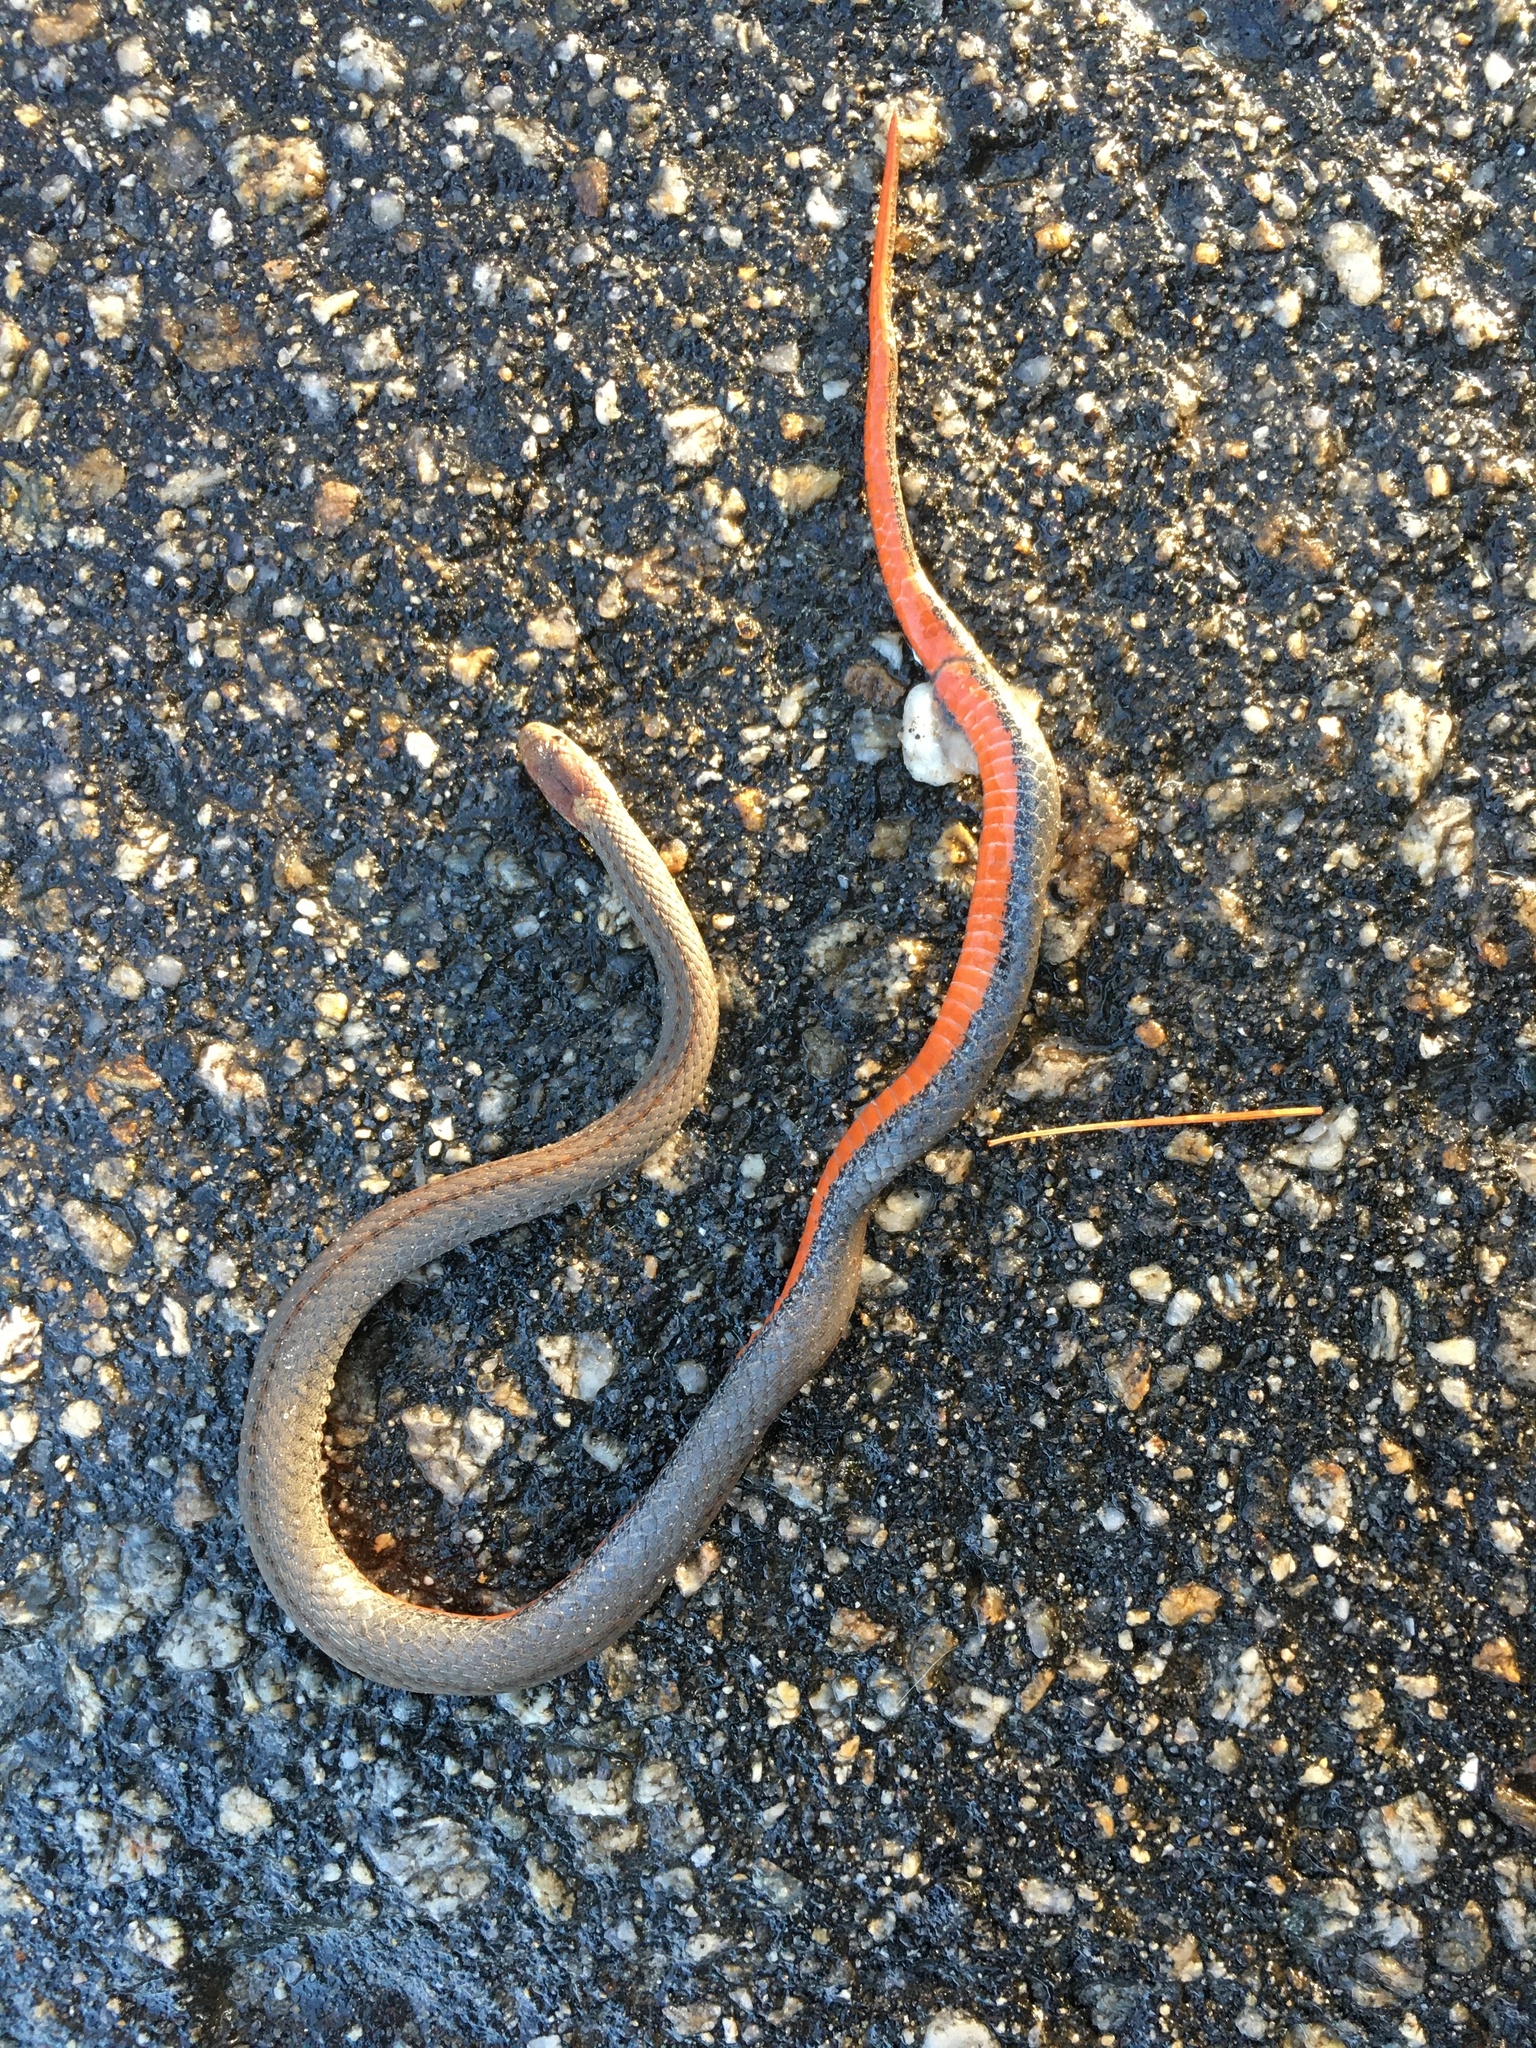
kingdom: Animalia
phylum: Chordata
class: Squamata
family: Colubridae
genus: Storeria
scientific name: Storeria occipitomaculata
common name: Redbelly snake
